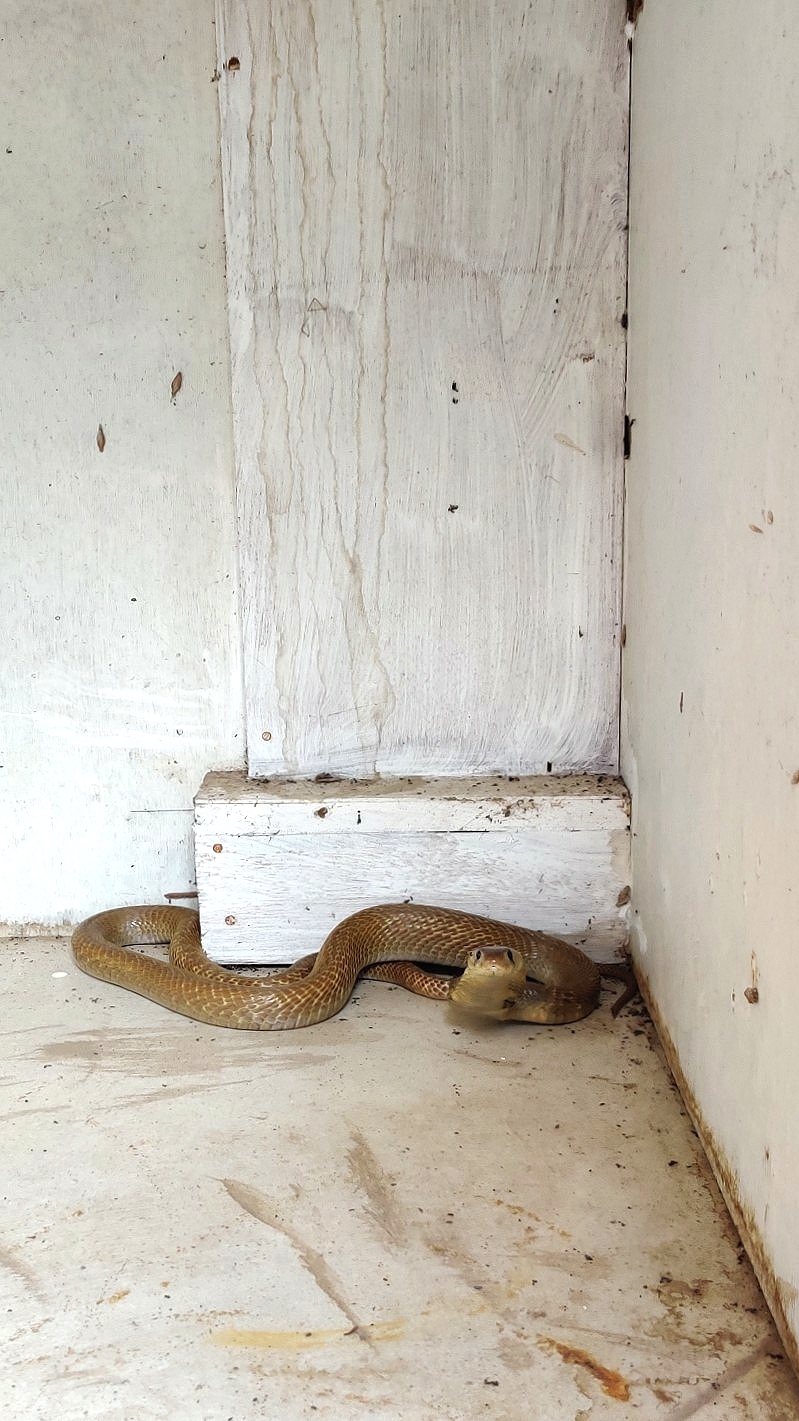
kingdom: Animalia
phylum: Chordata
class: Squamata
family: Elapidae
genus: Naja
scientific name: Naja naja
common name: Indian cobra
